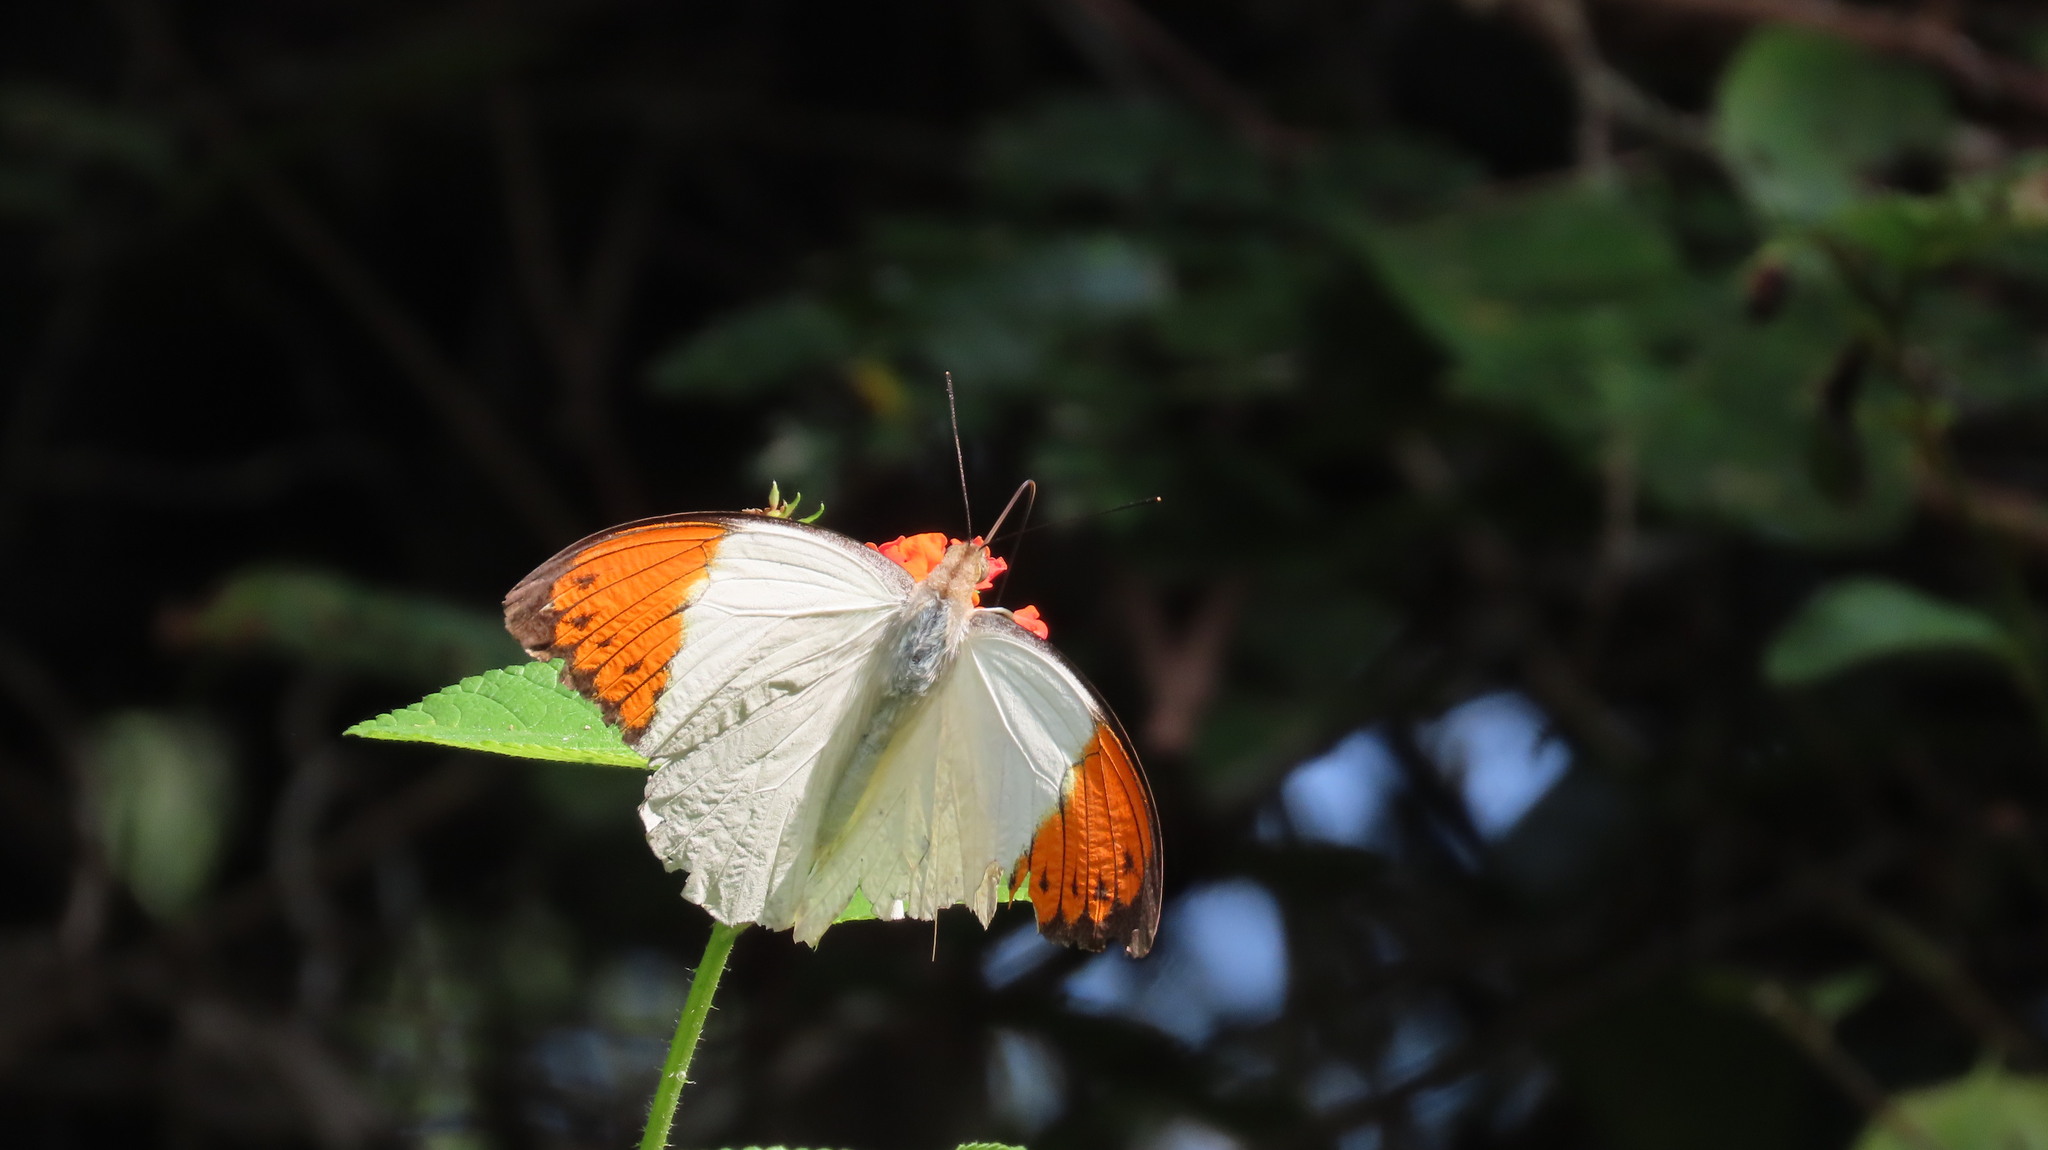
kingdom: Animalia
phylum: Arthropoda
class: Insecta
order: Lepidoptera
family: Pieridae
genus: Hebomoia
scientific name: Hebomoia glaucippe
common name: Great orange tip
